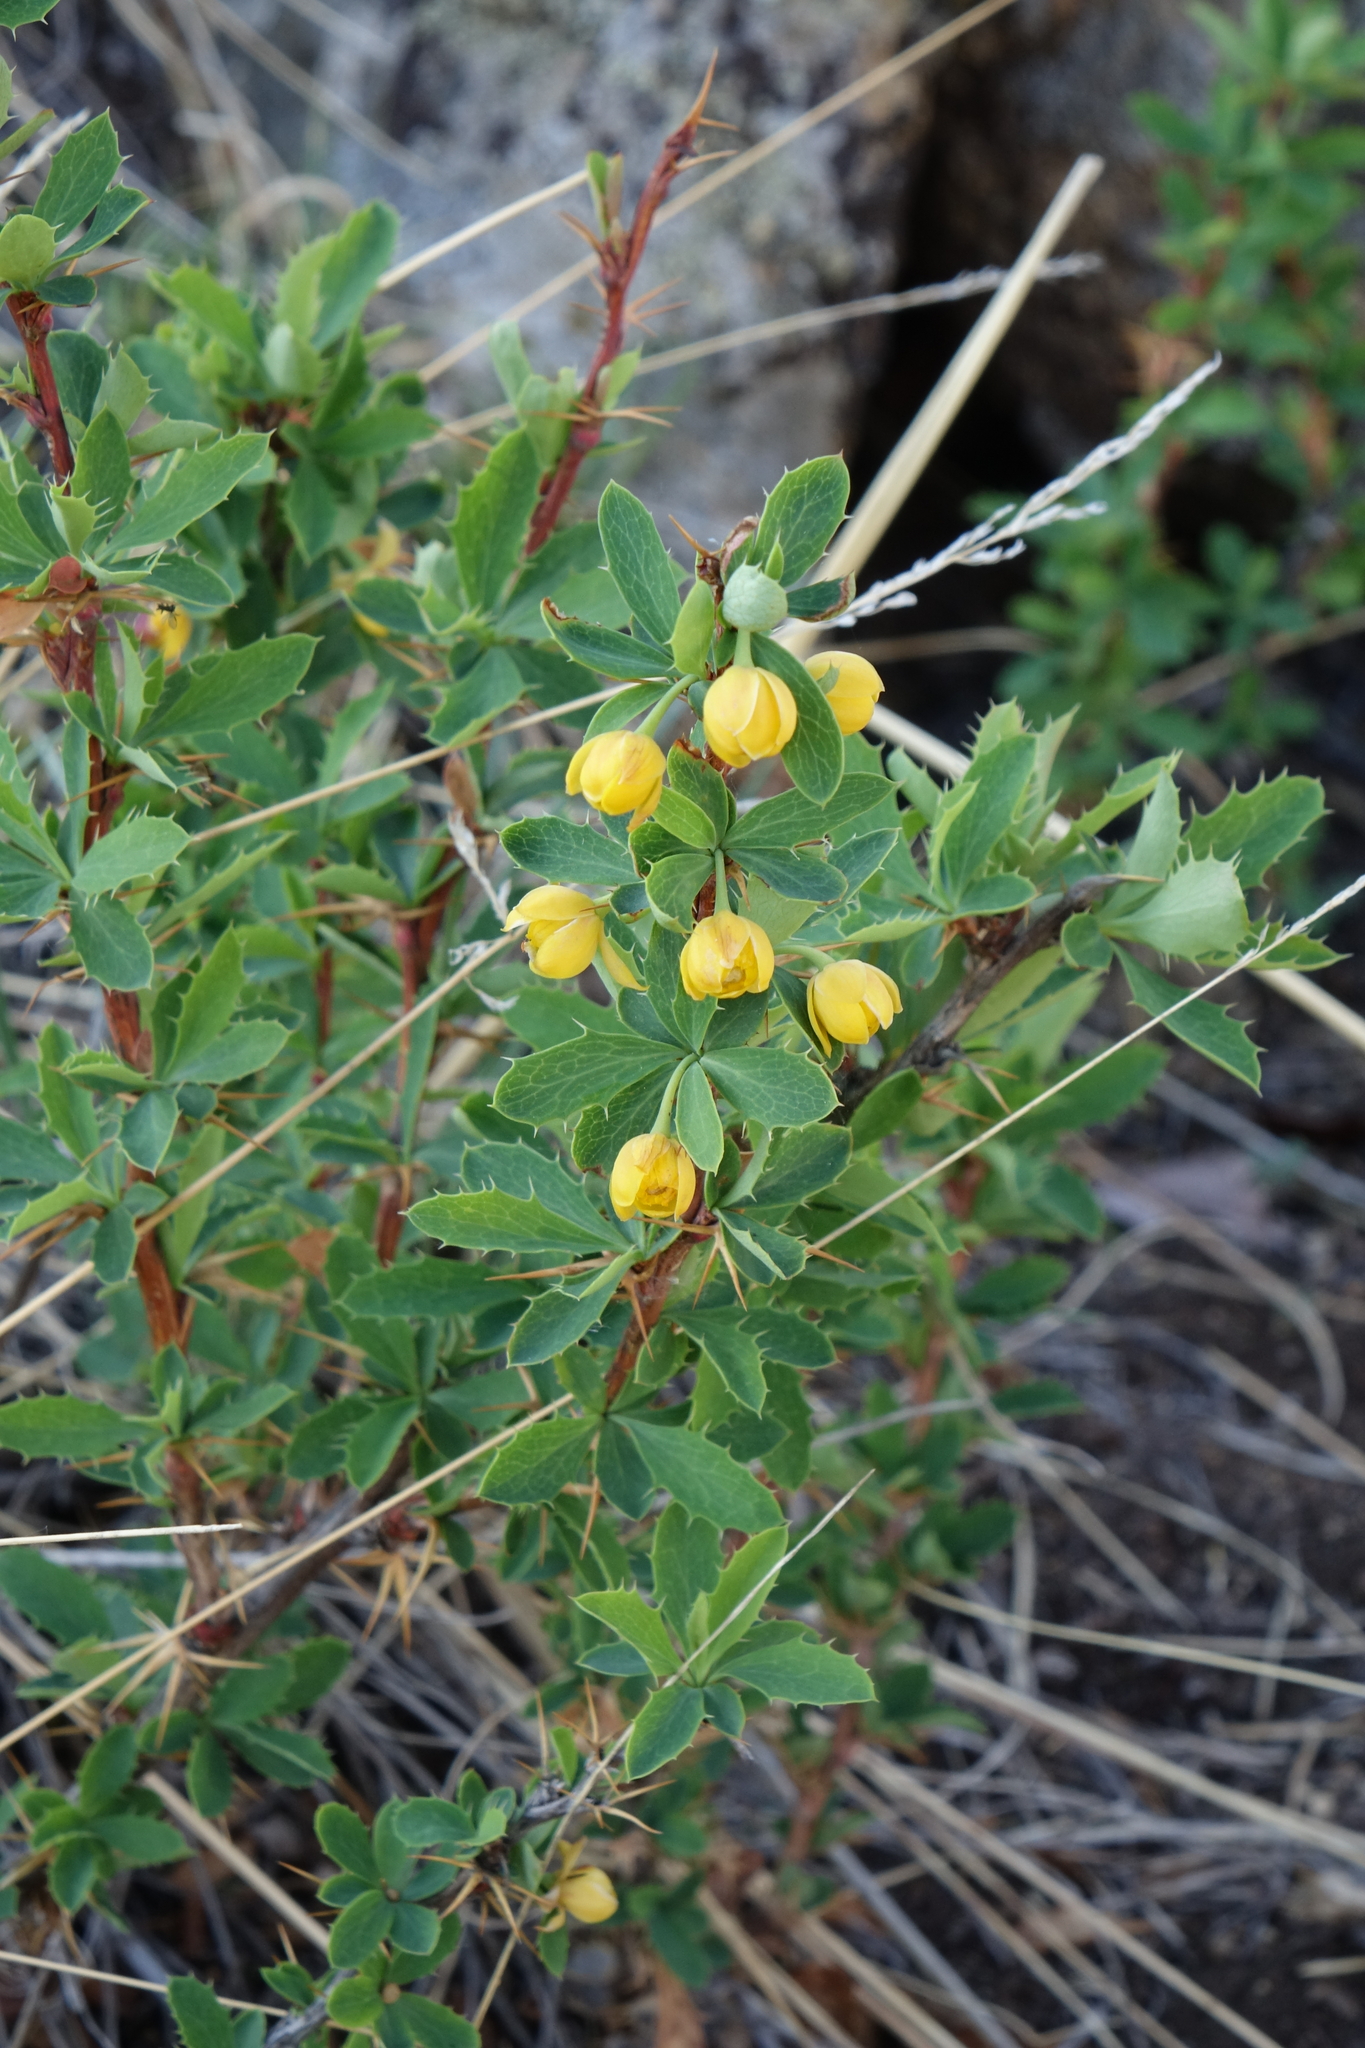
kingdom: Plantae
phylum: Tracheophyta
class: Magnoliopsida
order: Ranunculales
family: Berberidaceae
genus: Berberis
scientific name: Berberis sibirica
